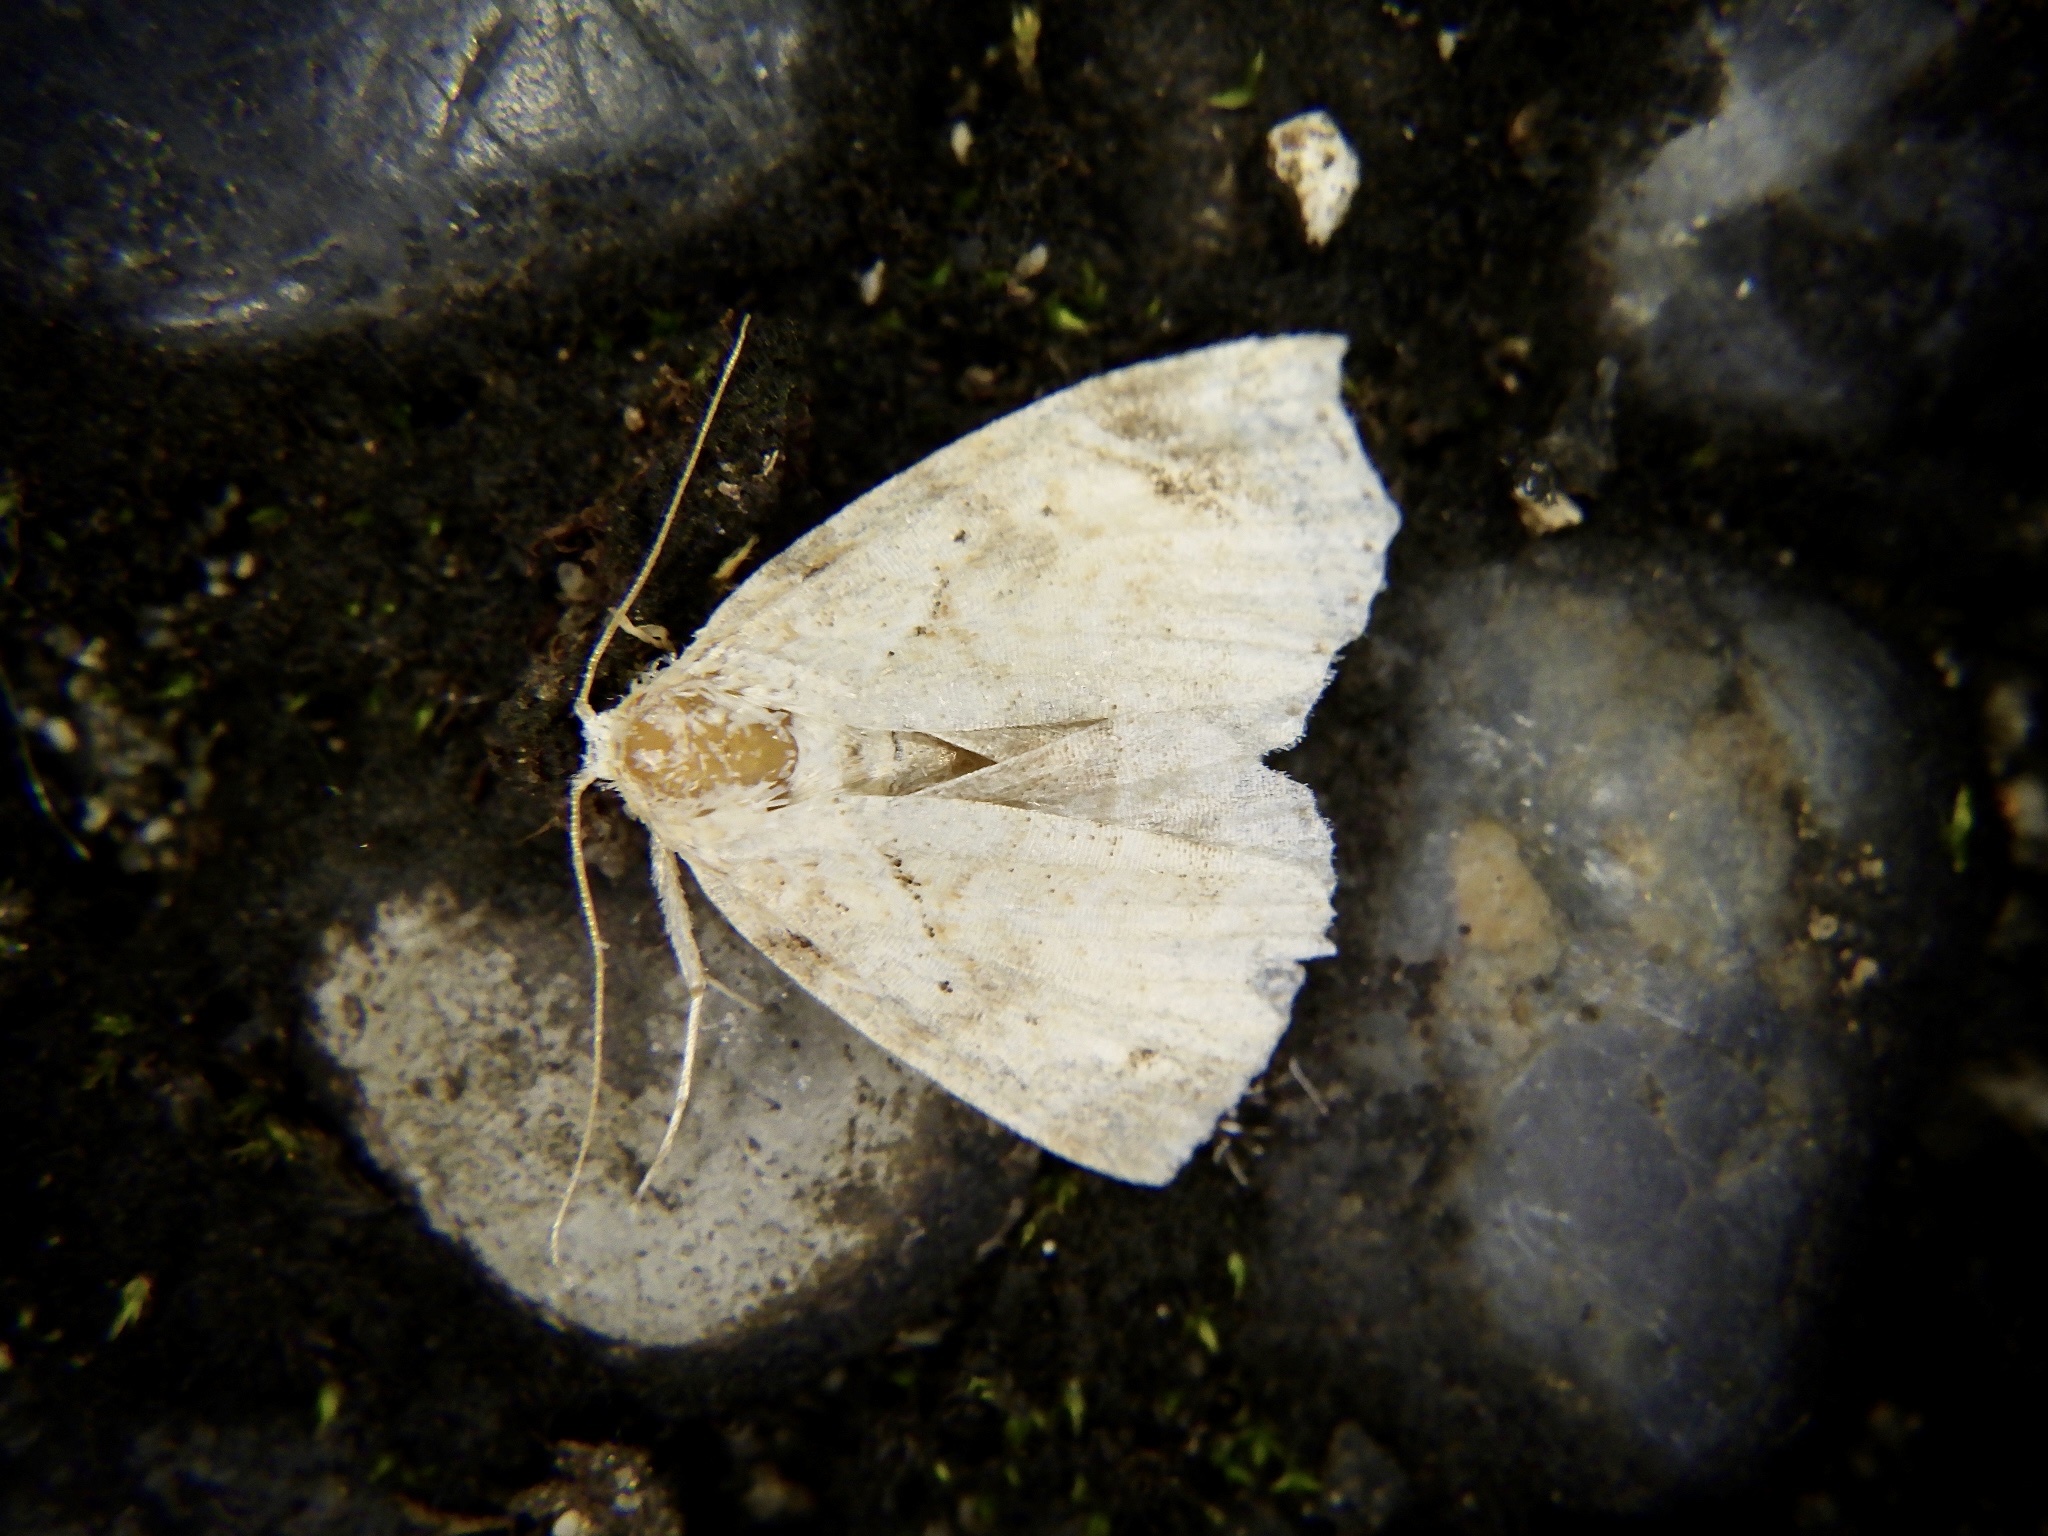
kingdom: Animalia
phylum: Arthropoda
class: Insecta
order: Lepidoptera
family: Erebidae
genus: Olulis
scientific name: Olulis
